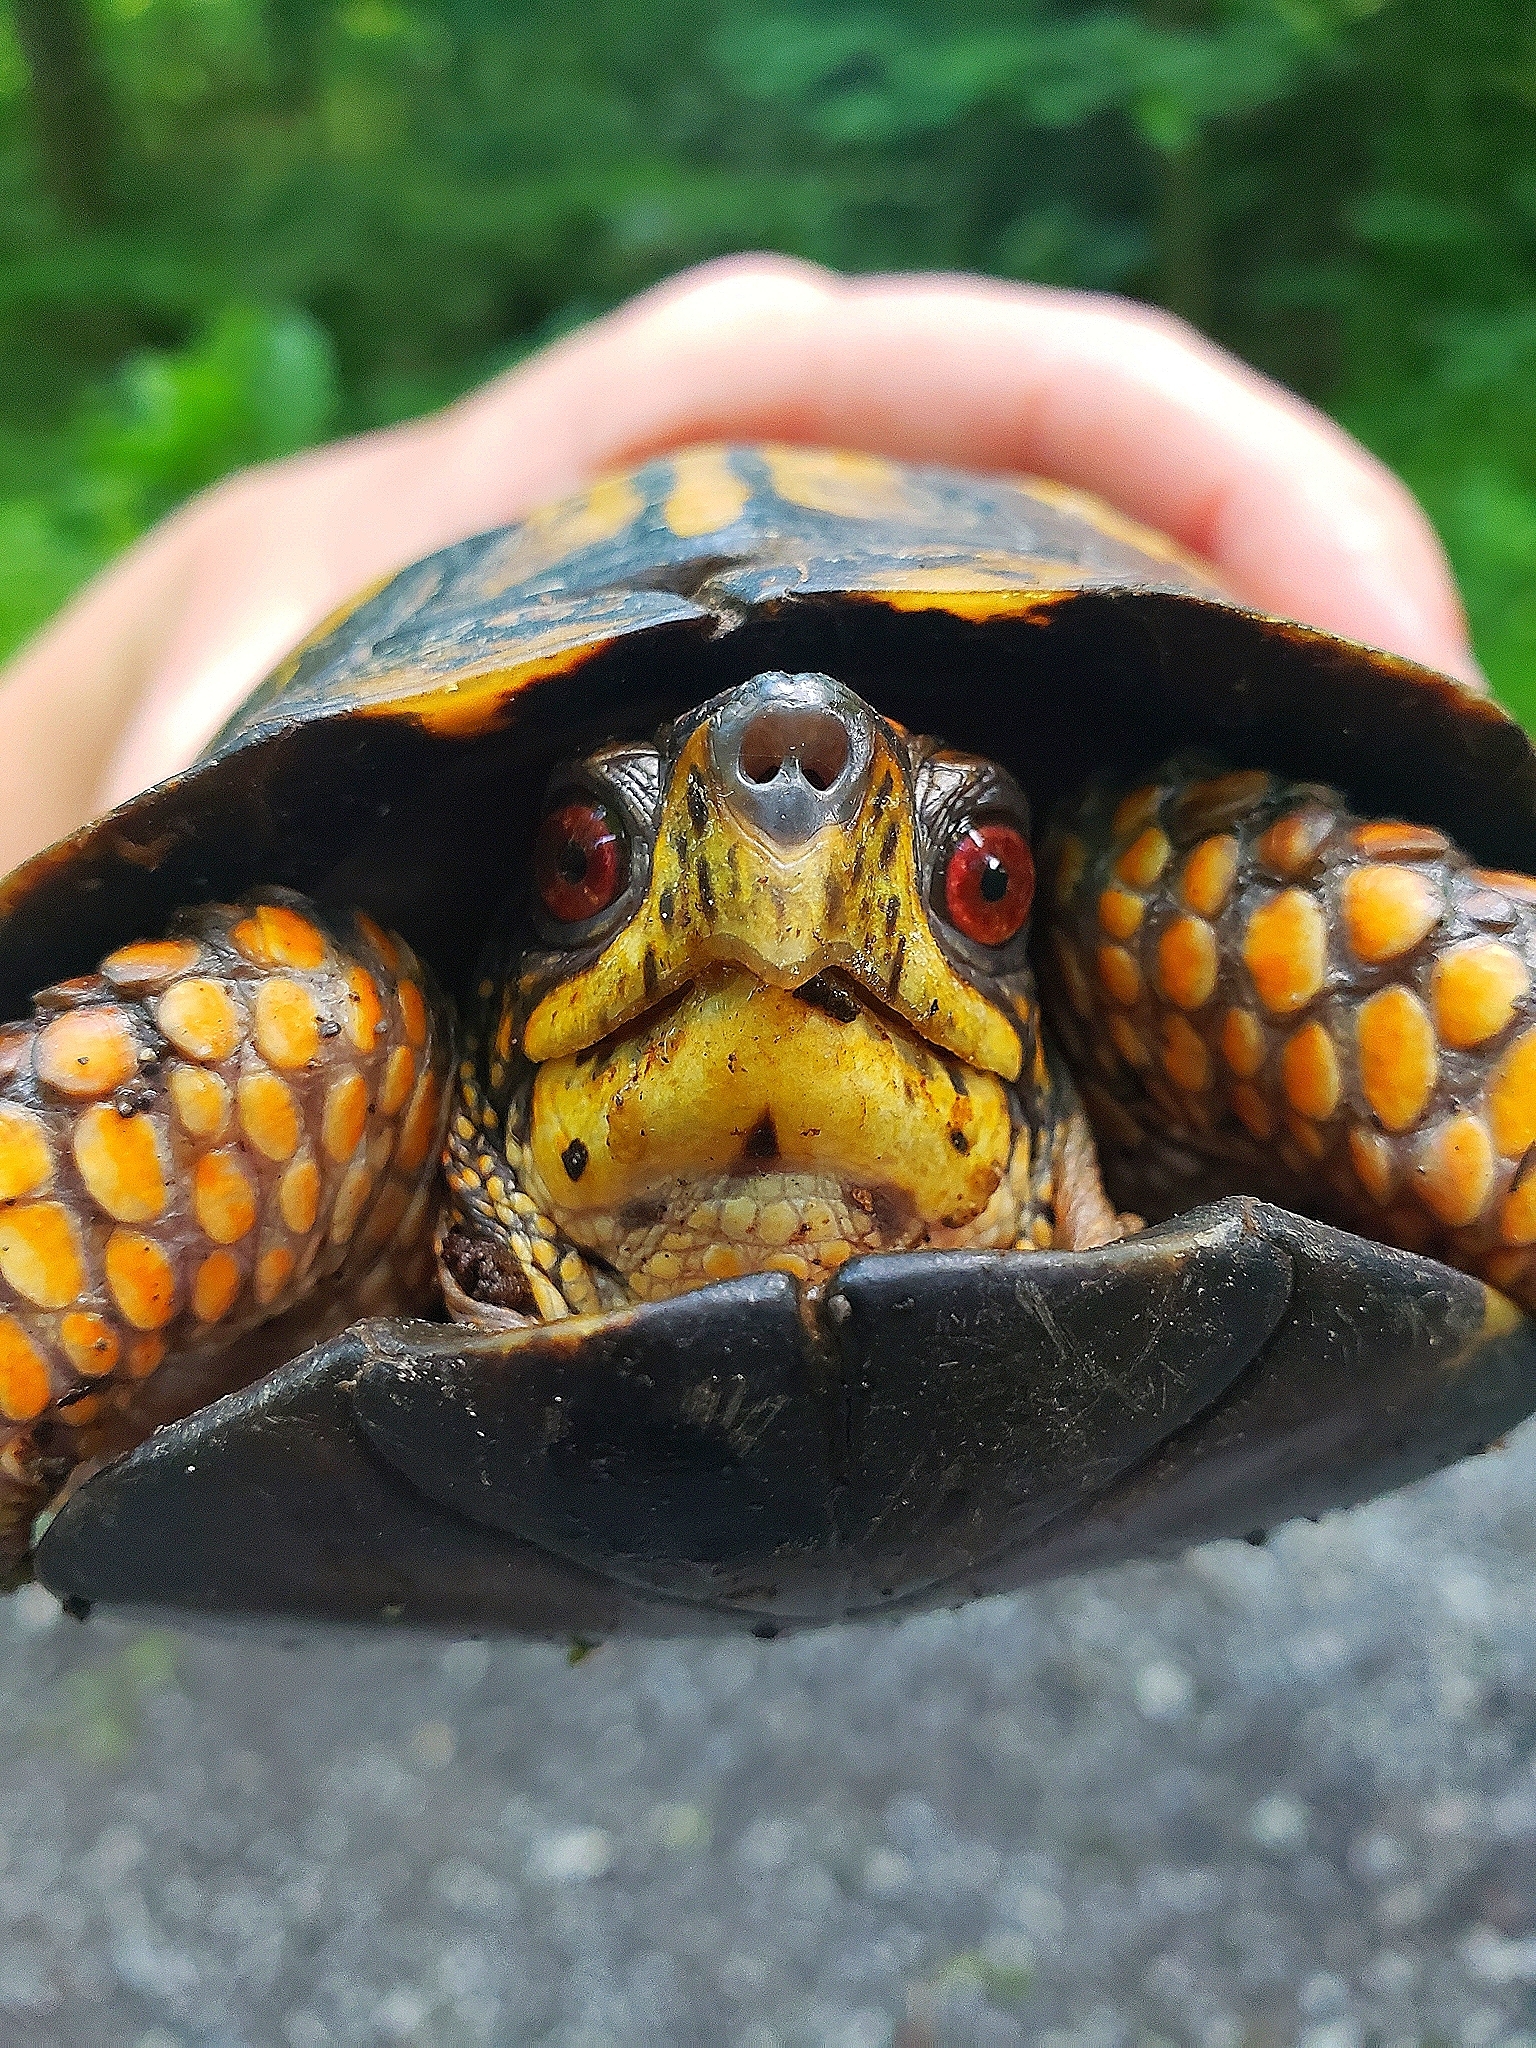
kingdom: Animalia
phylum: Chordata
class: Testudines
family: Emydidae
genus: Terrapene
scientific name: Terrapene carolina
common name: Common box turtle
